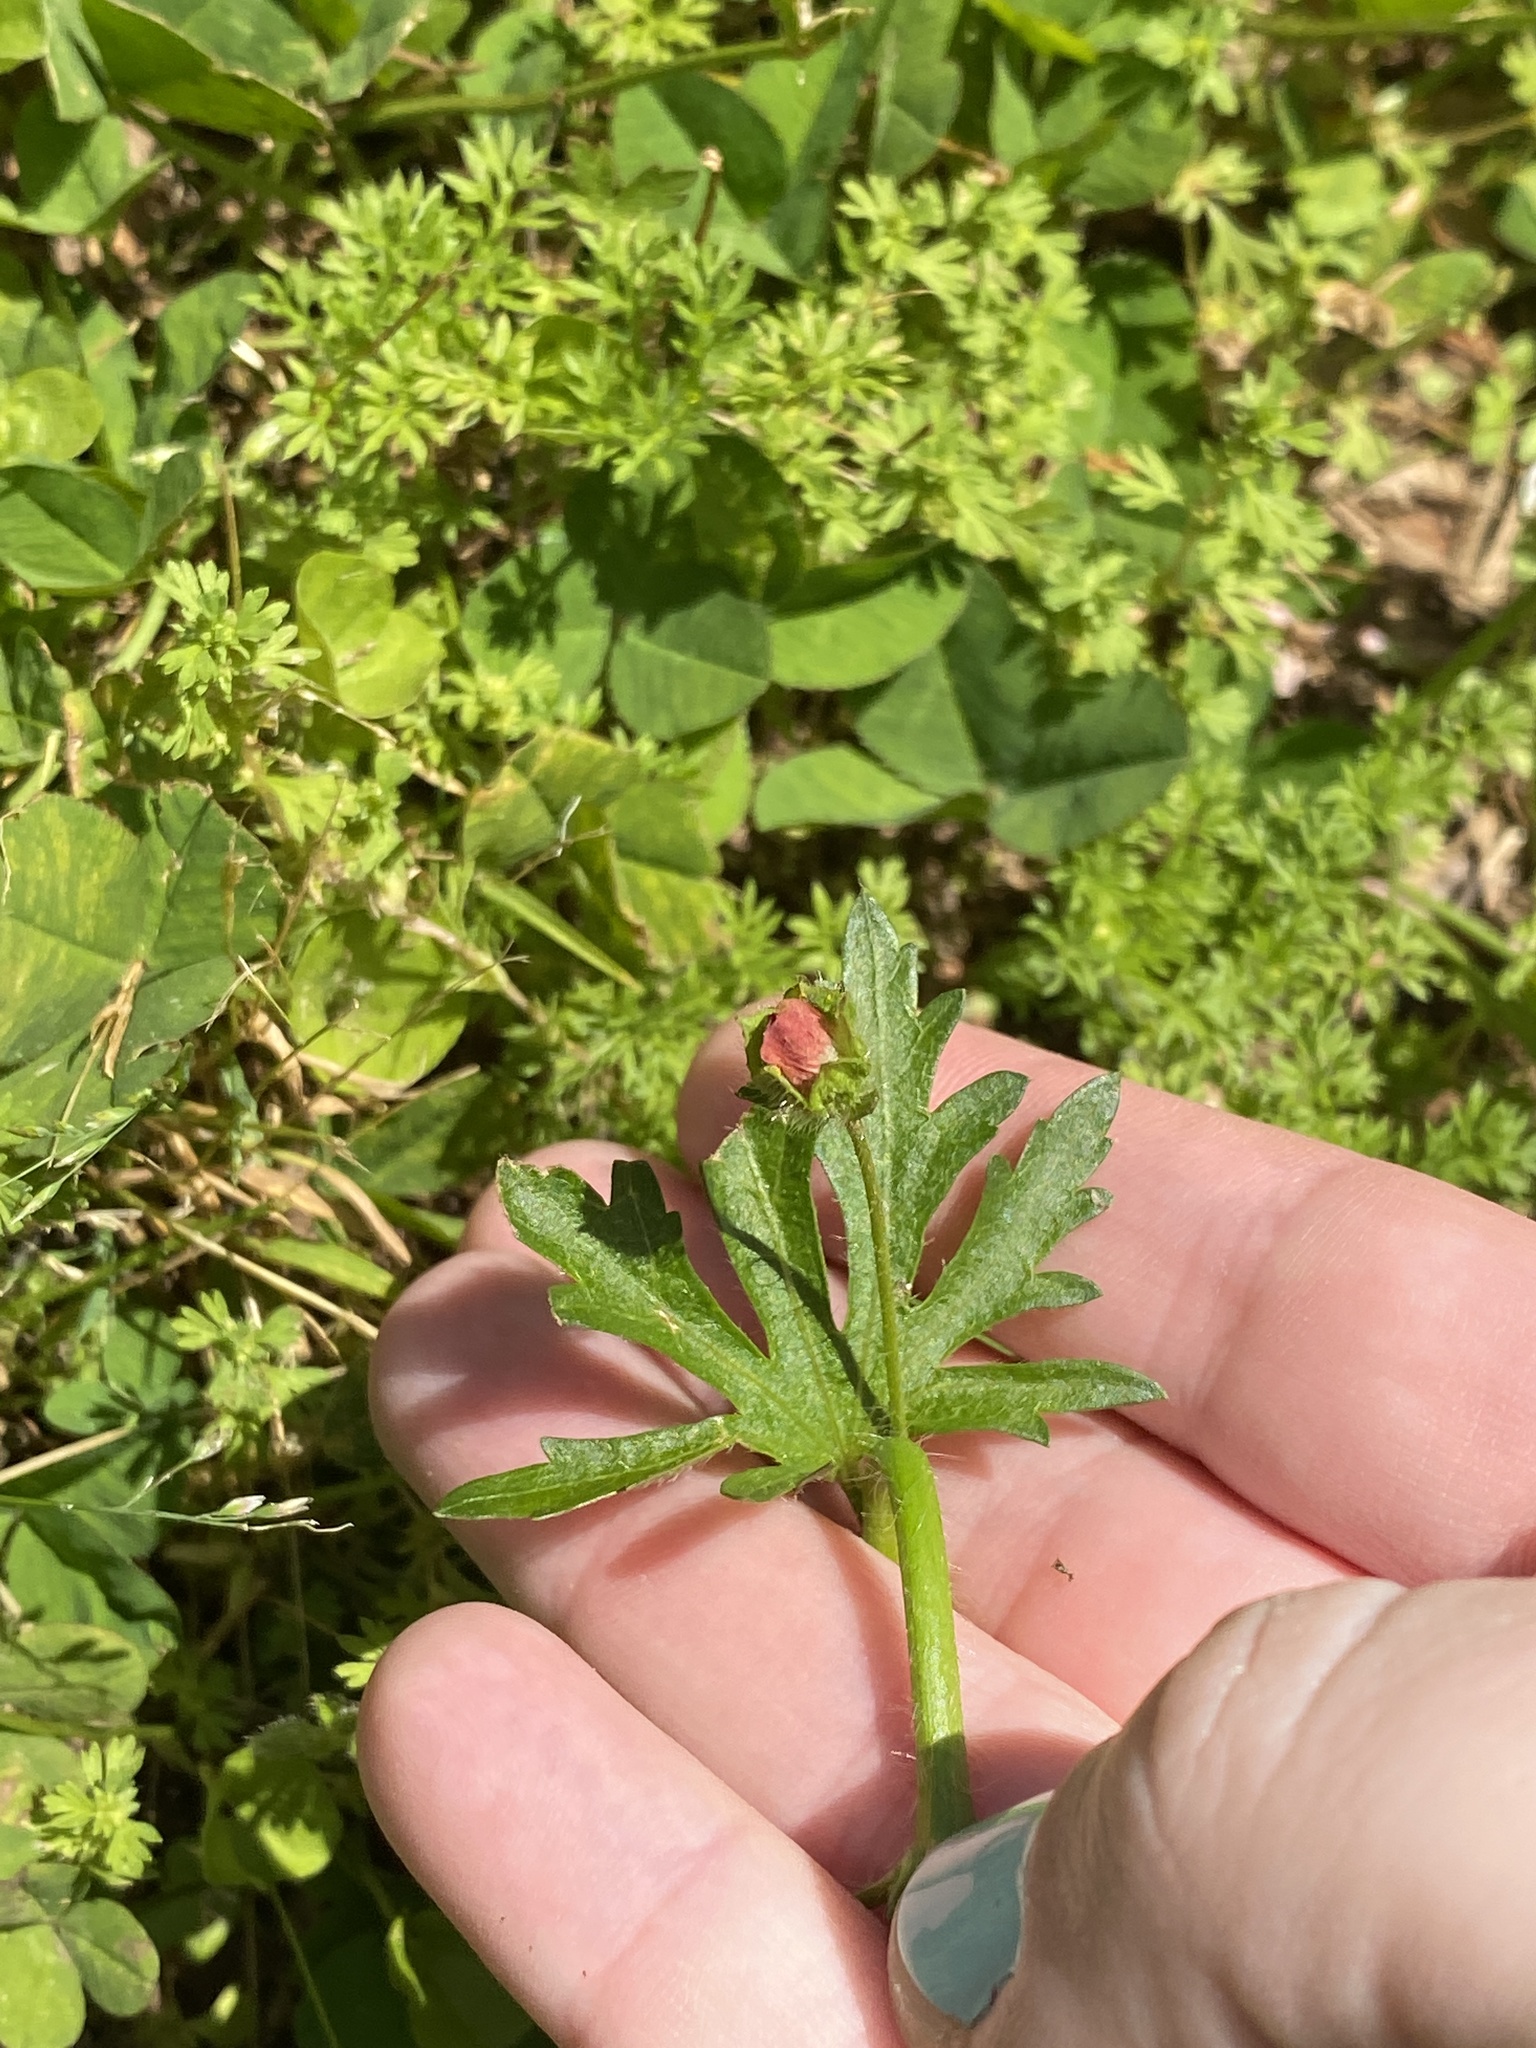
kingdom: Plantae
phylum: Tracheophyta
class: Magnoliopsida
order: Malvales
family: Malvaceae
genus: Modiola
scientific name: Modiola caroliniana
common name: Carolina bristlemallow
